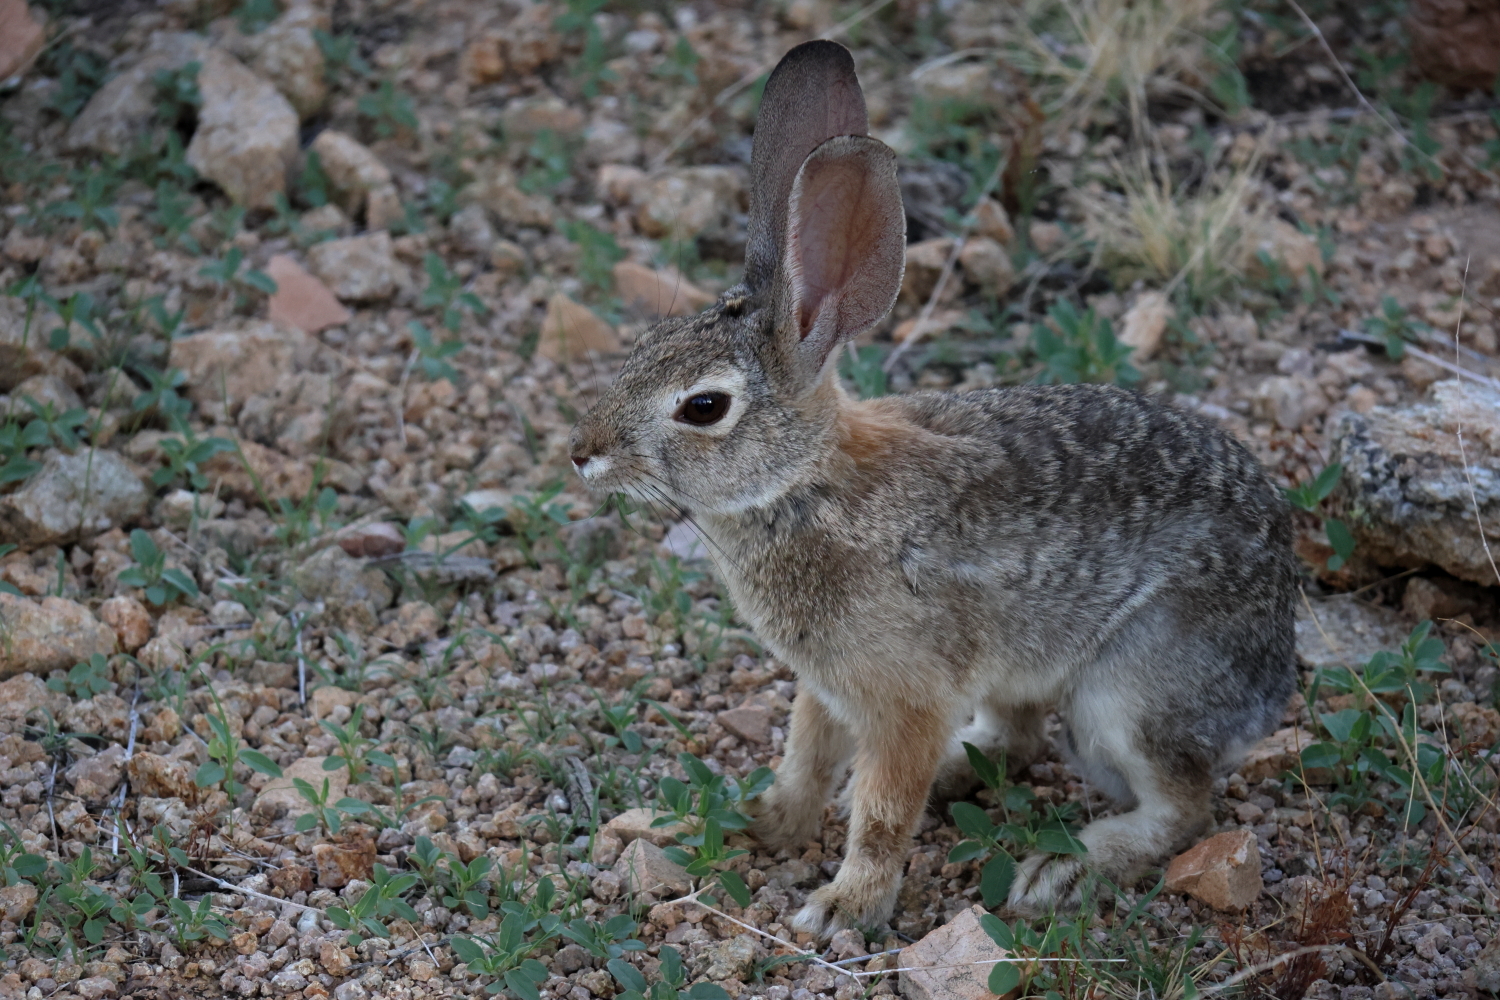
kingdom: Animalia
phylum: Chordata
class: Mammalia
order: Lagomorpha
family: Leporidae
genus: Sylvilagus
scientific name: Sylvilagus audubonii
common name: Desert cottontail
